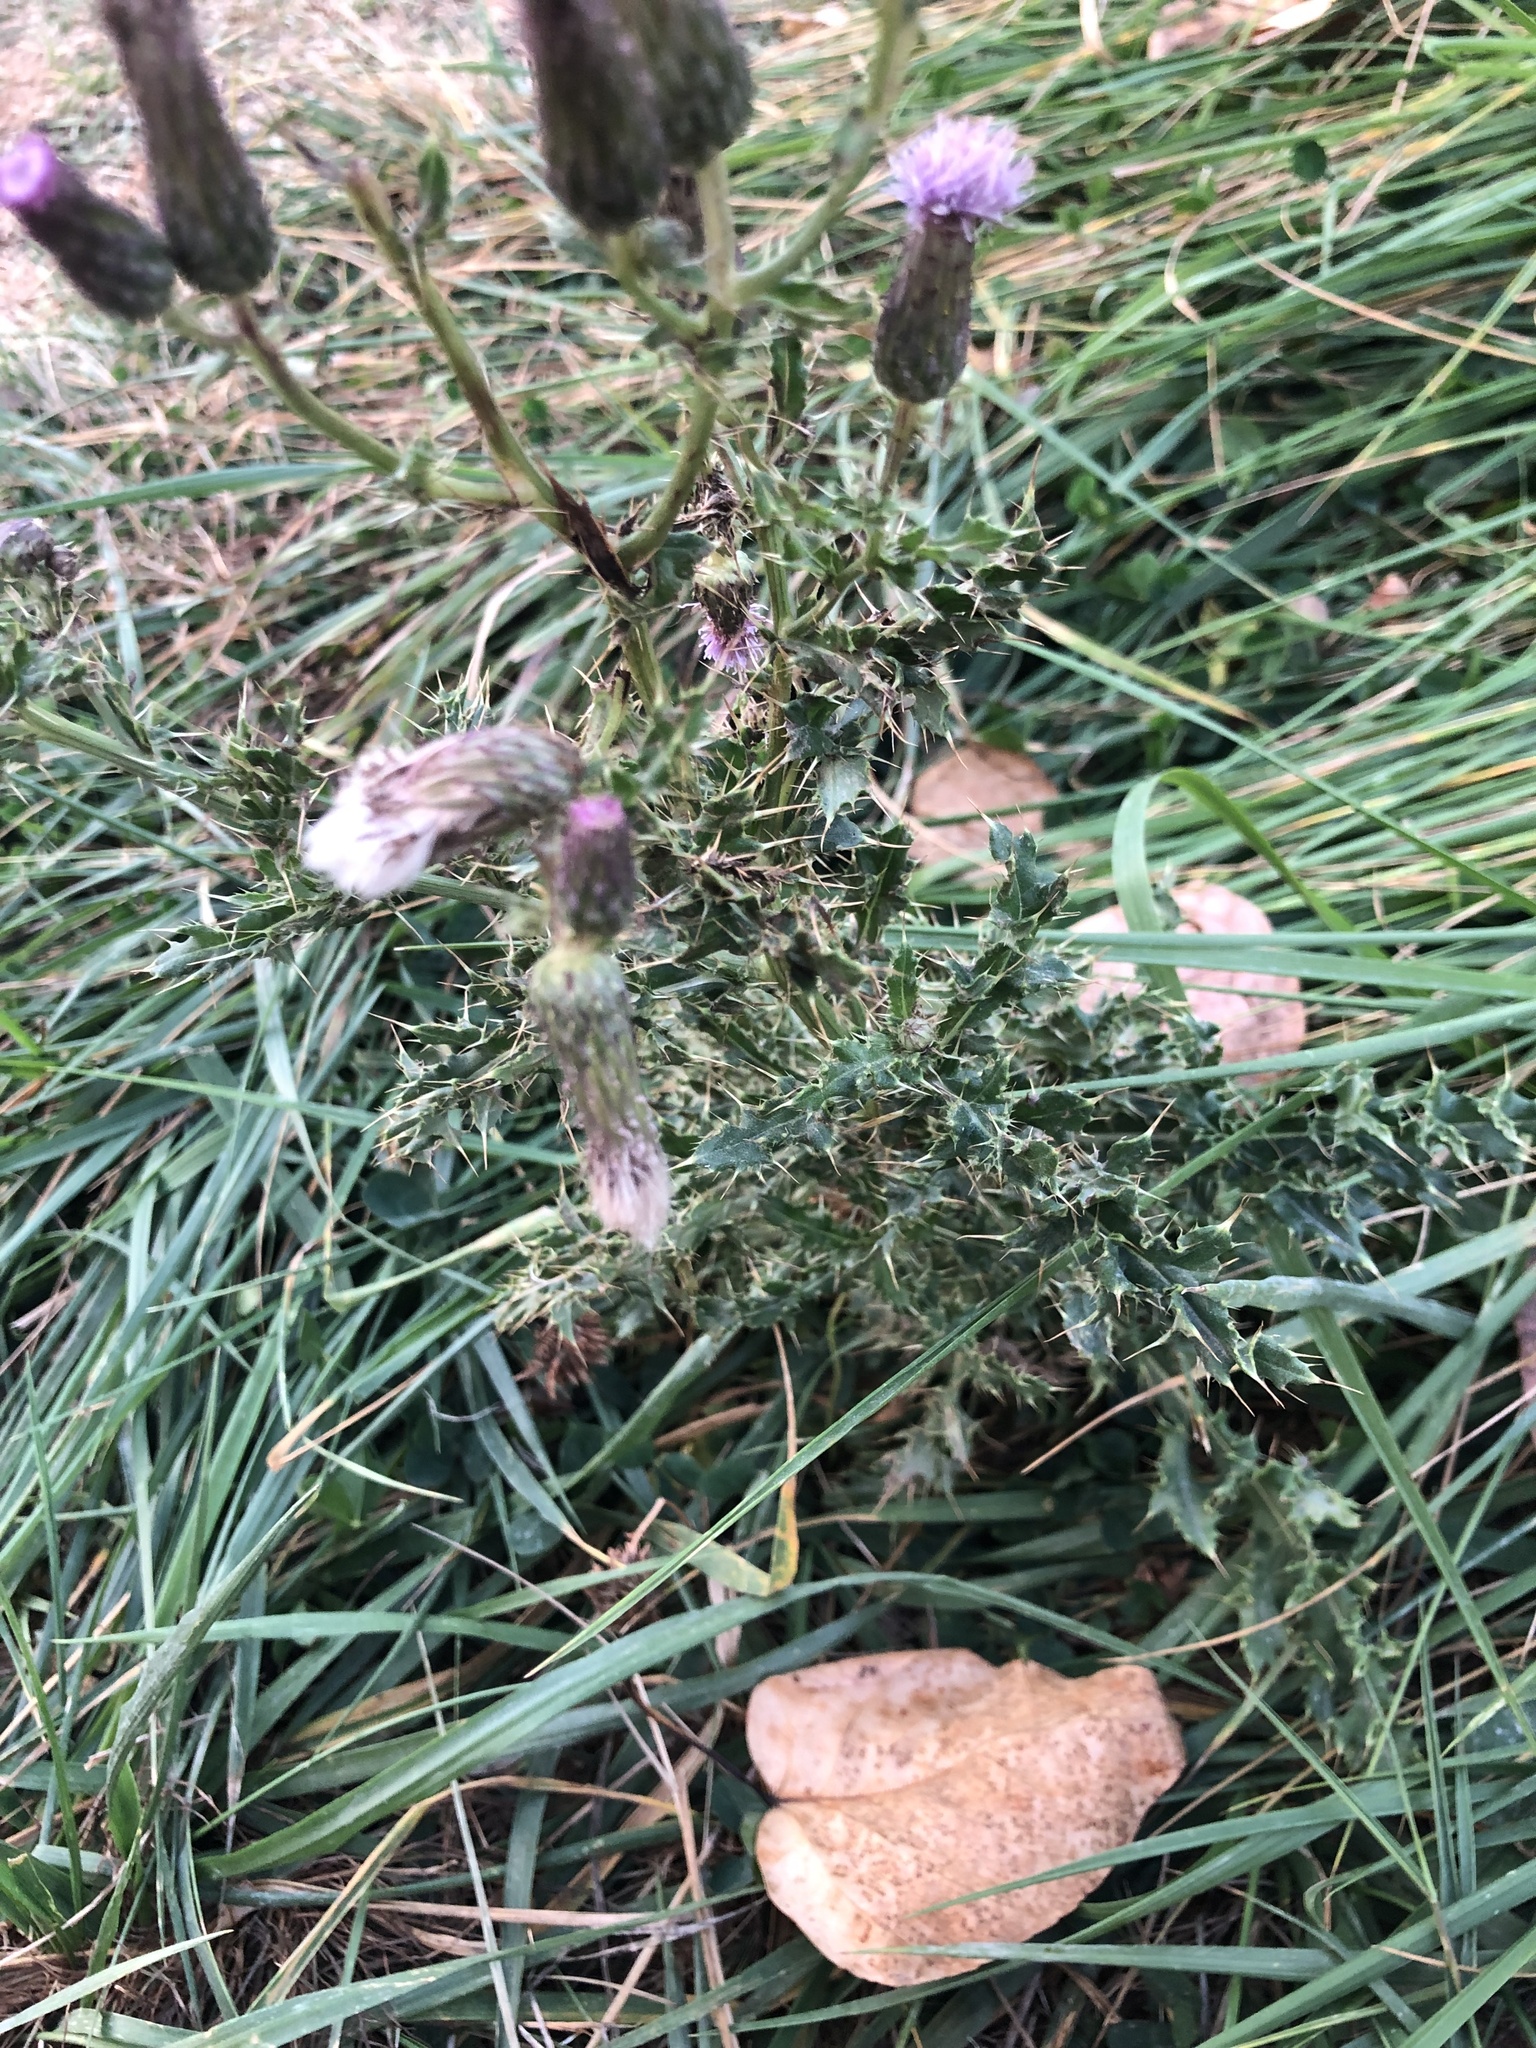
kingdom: Plantae
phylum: Tracheophyta
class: Magnoliopsida
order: Asterales
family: Asteraceae
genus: Cirsium
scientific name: Cirsium arvense
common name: Creeping thistle
